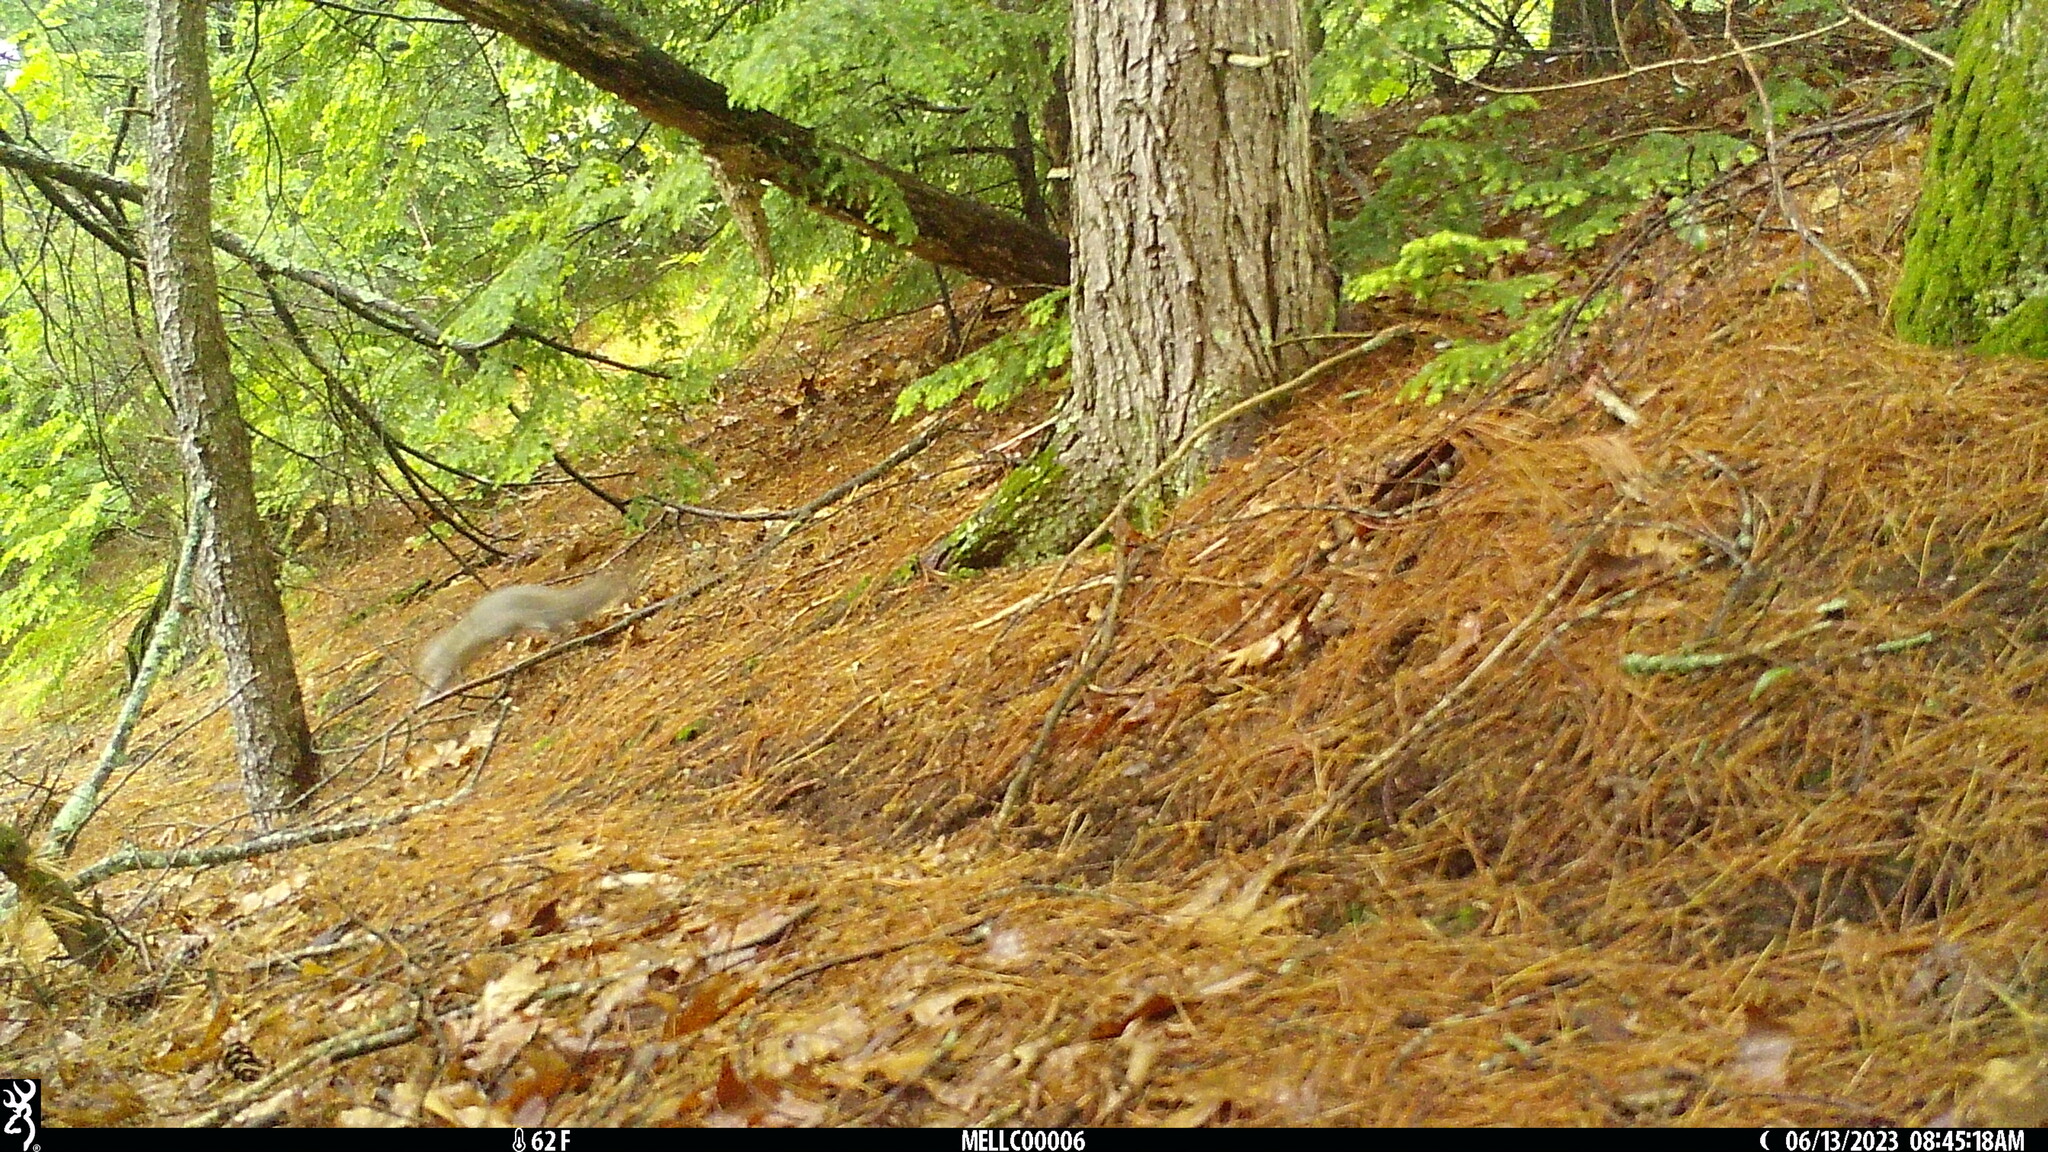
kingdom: Animalia
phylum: Chordata
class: Mammalia
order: Rodentia
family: Sciuridae
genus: Sciurus
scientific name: Sciurus carolinensis
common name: Eastern gray squirrel
